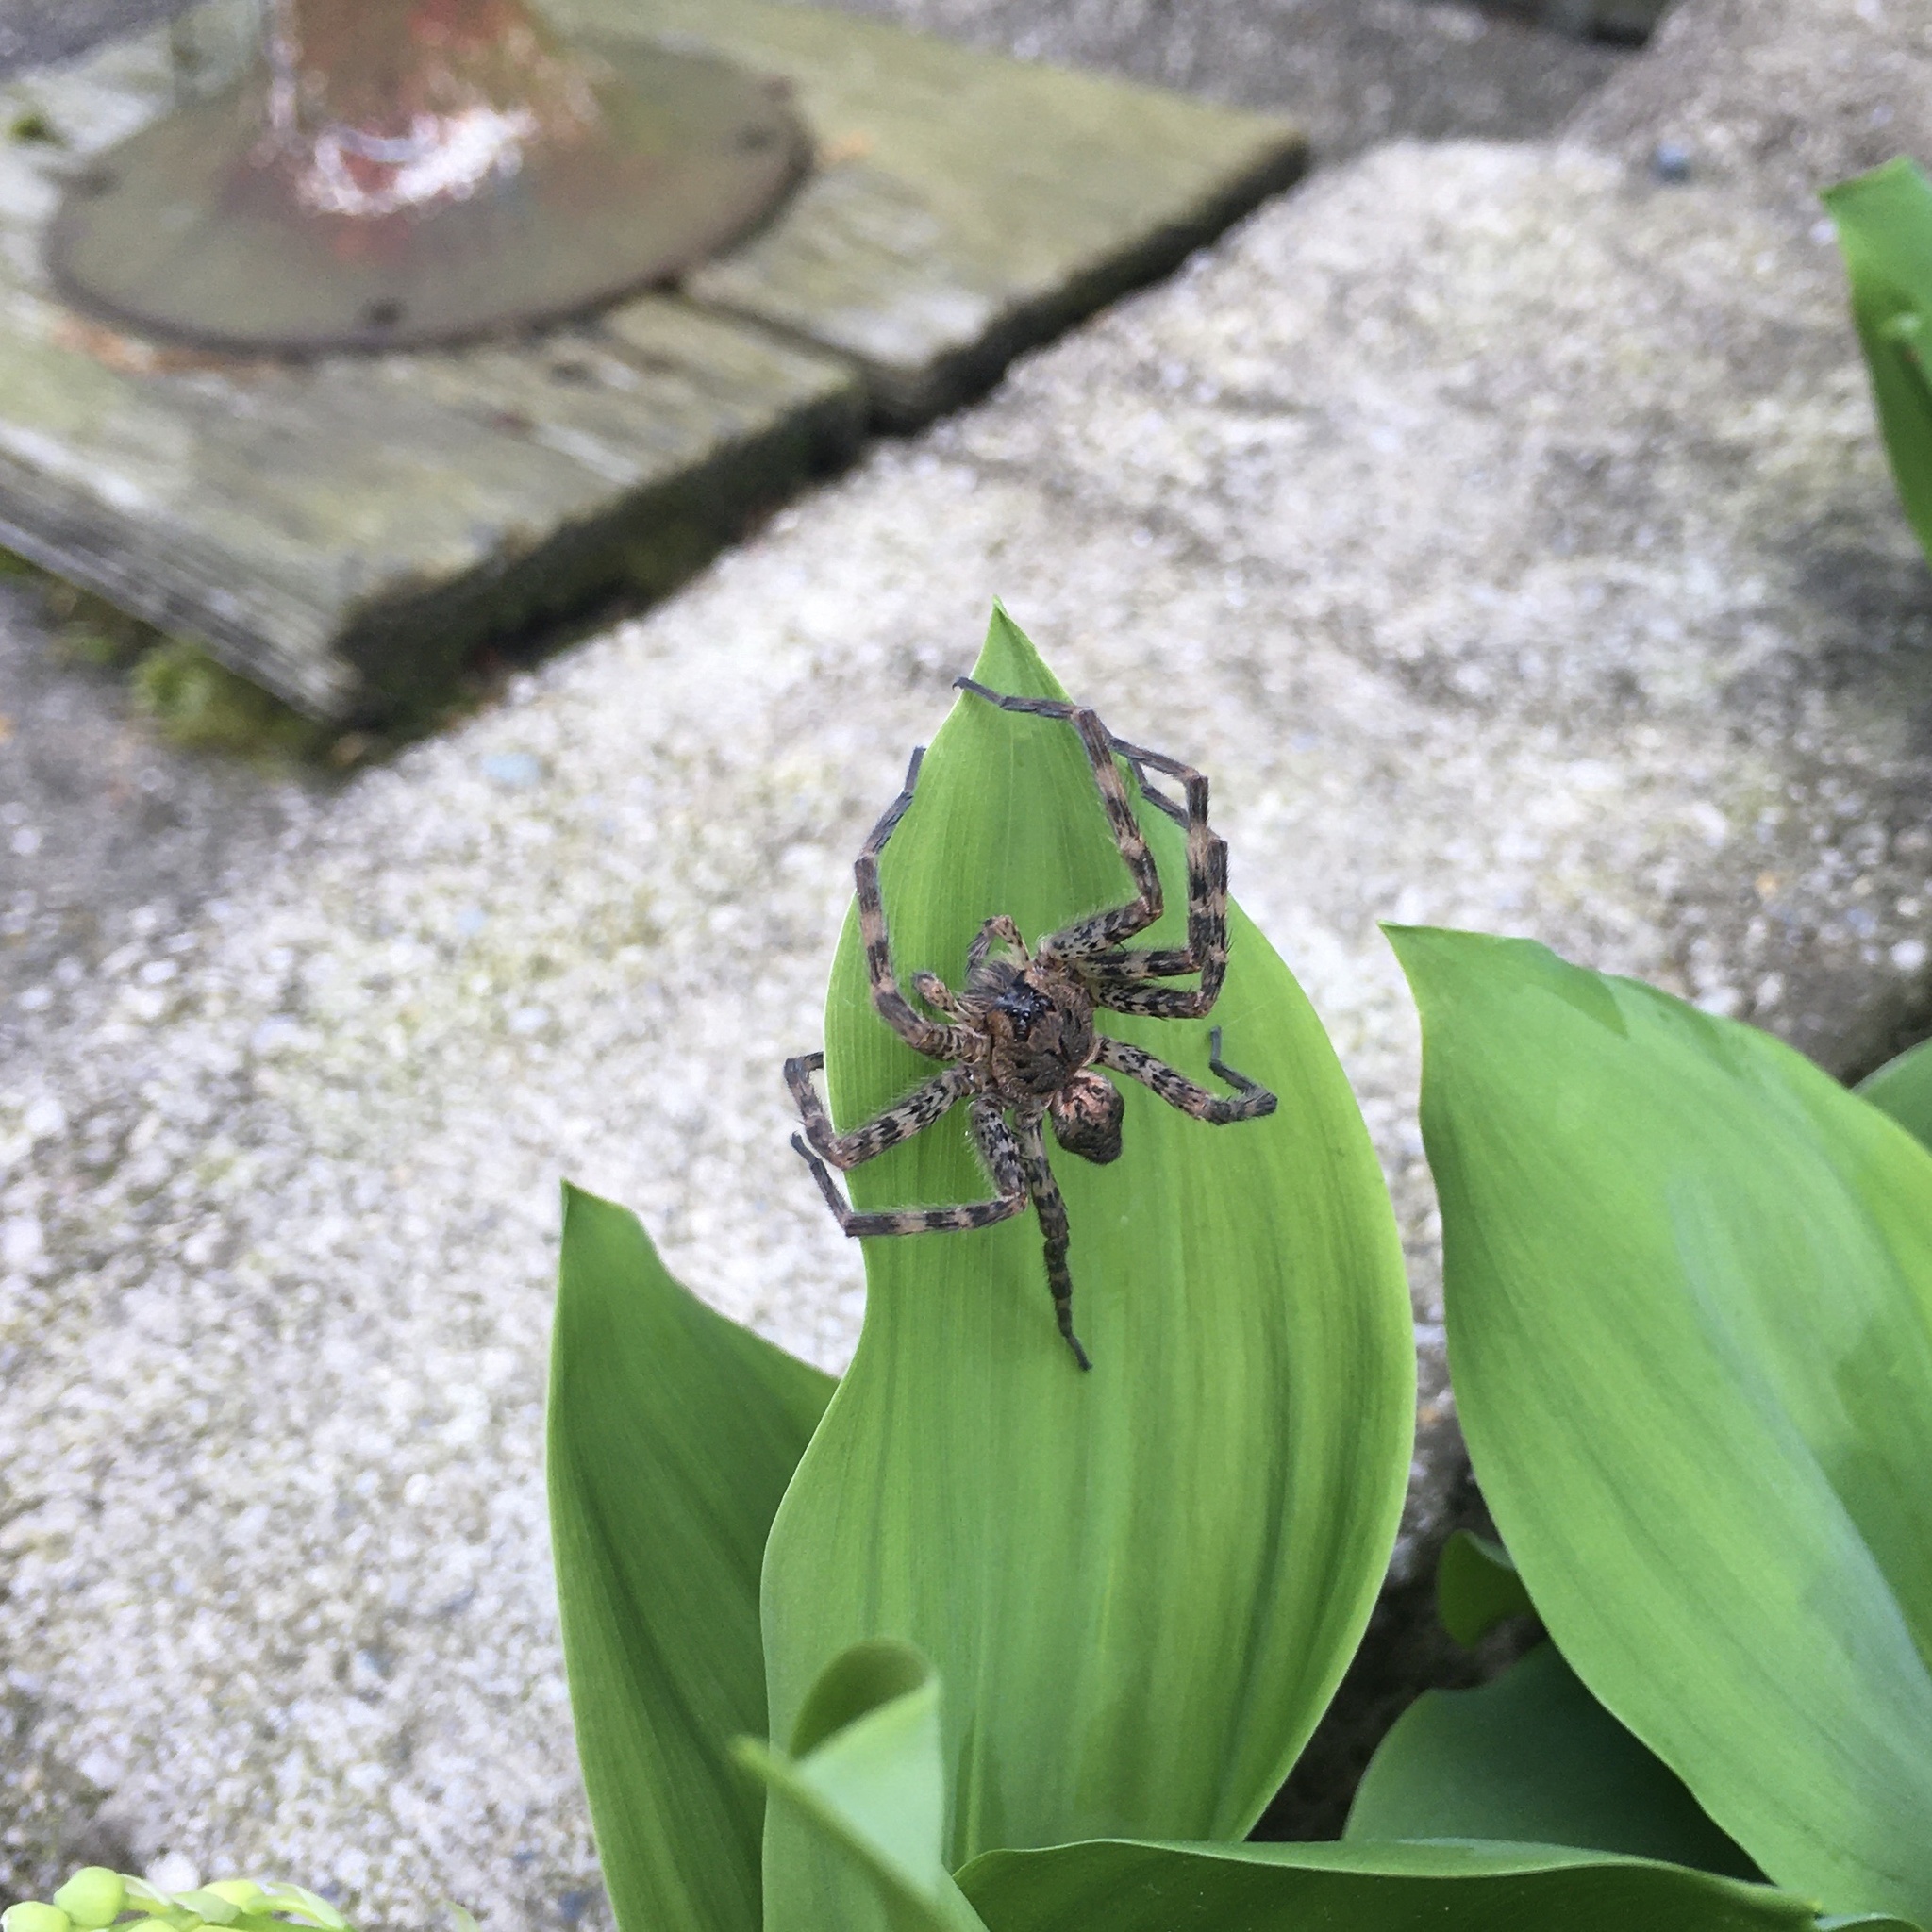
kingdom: Animalia
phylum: Arthropoda
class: Arachnida
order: Araneae
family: Pisauridae
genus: Dolomedes
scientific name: Dolomedes tenebrosus
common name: Dark fishing spider
